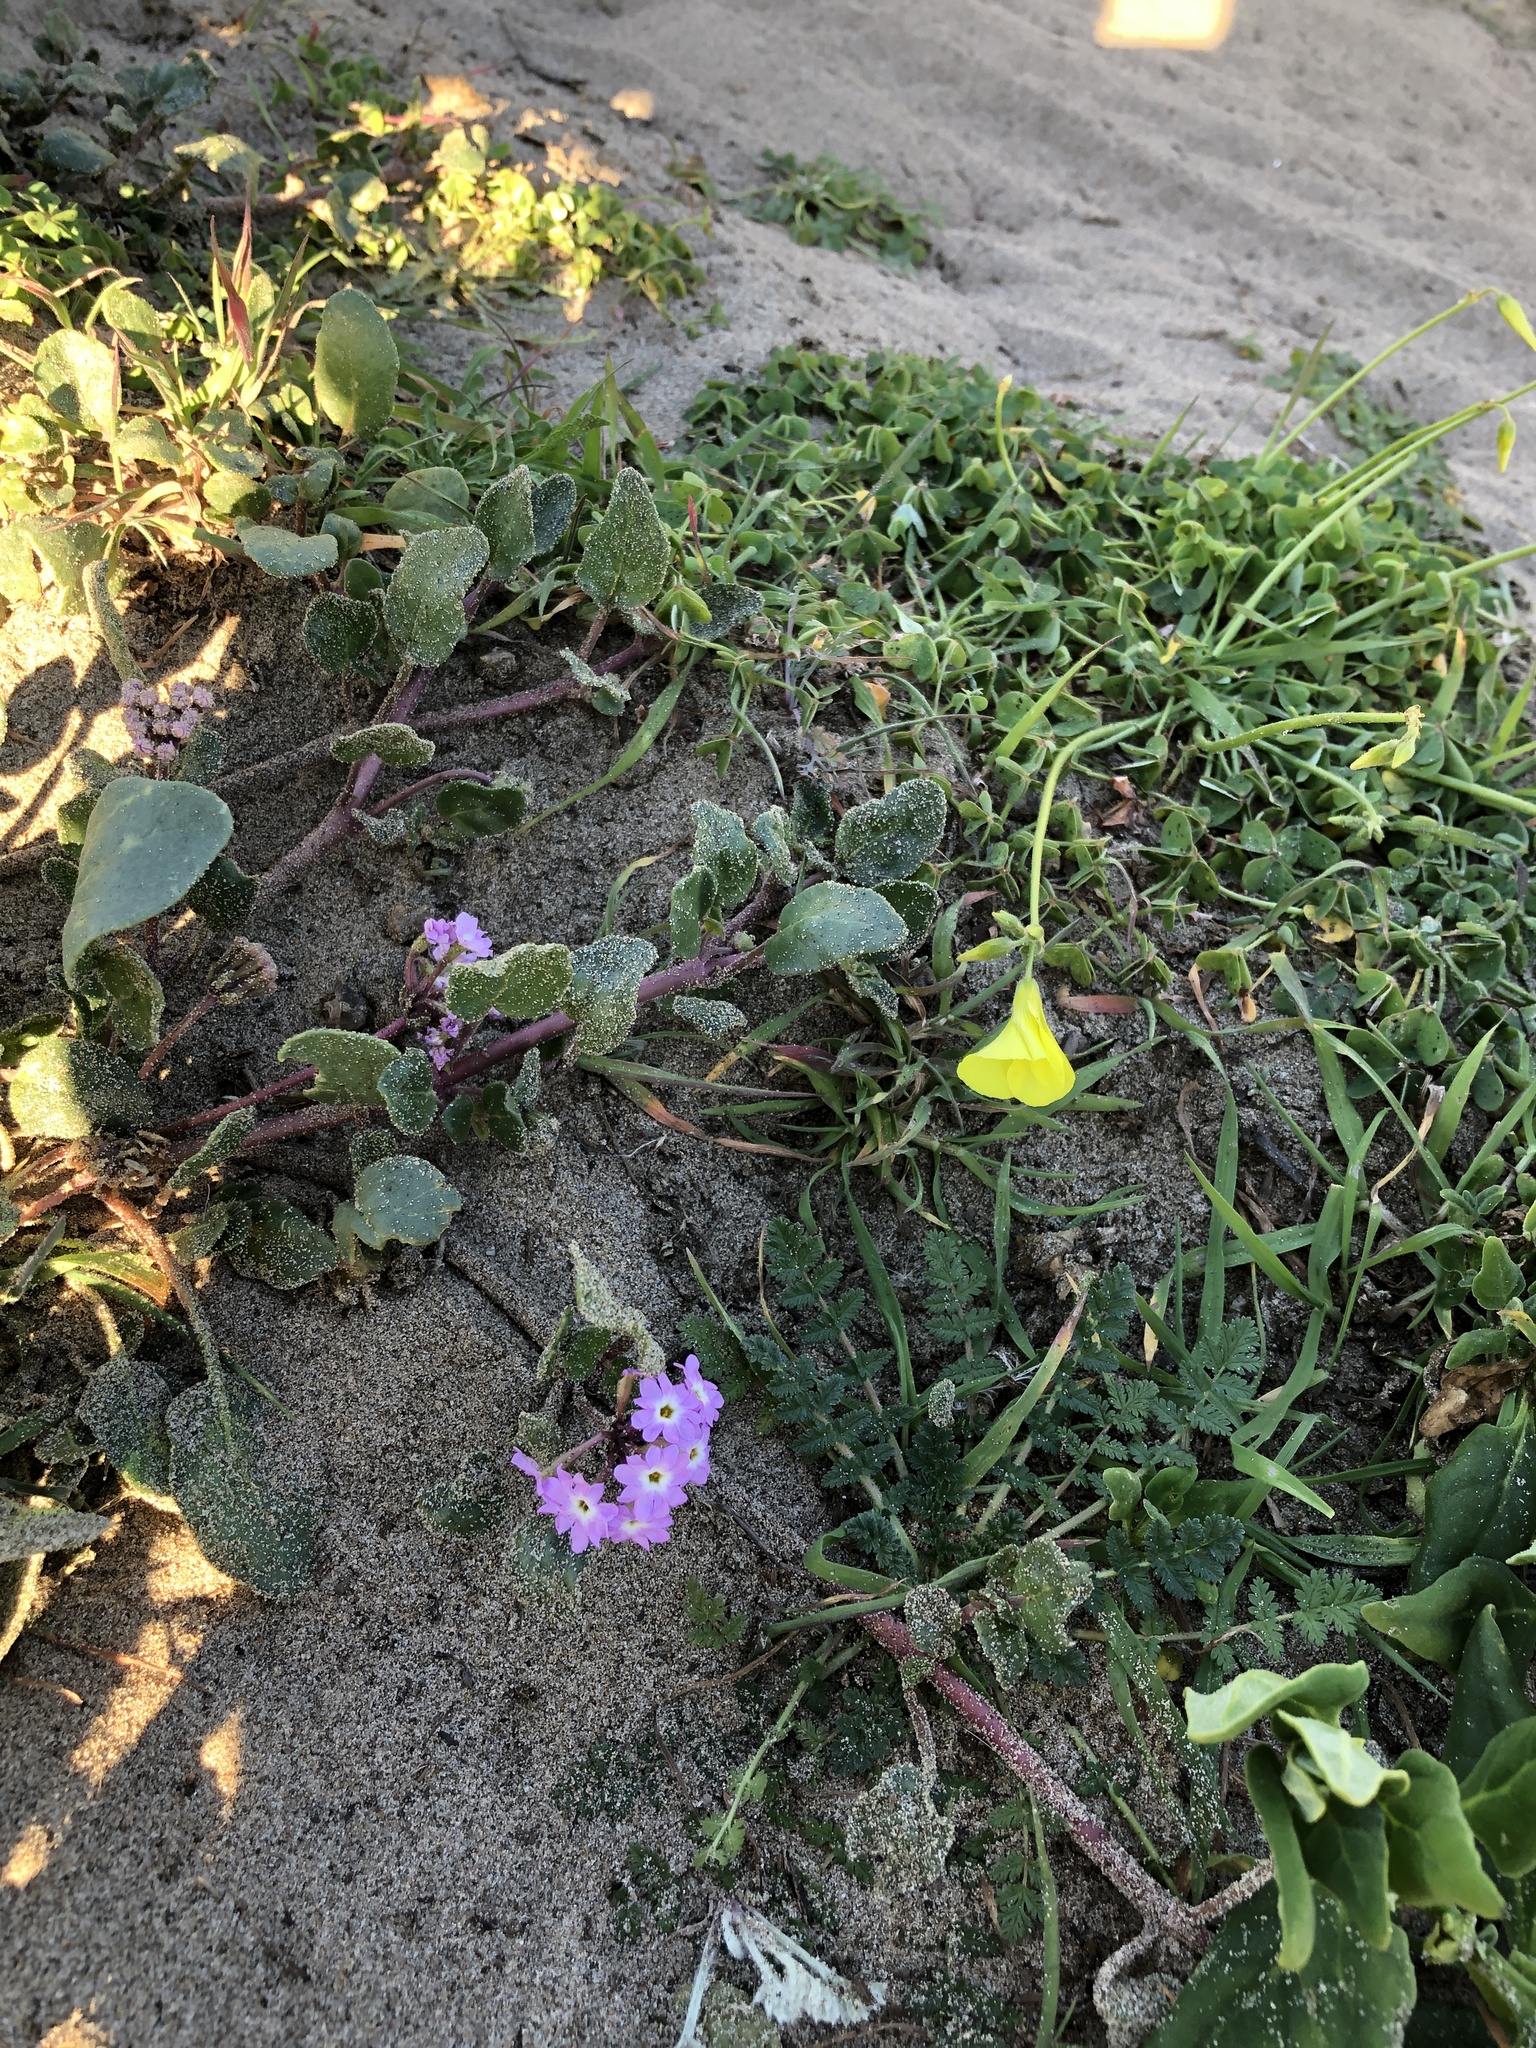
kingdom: Plantae
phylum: Tracheophyta
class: Magnoliopsida
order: Caryophyllales
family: Nyctaginaceae
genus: Abronia
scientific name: Abronia umbellata
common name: Sand-verbena
